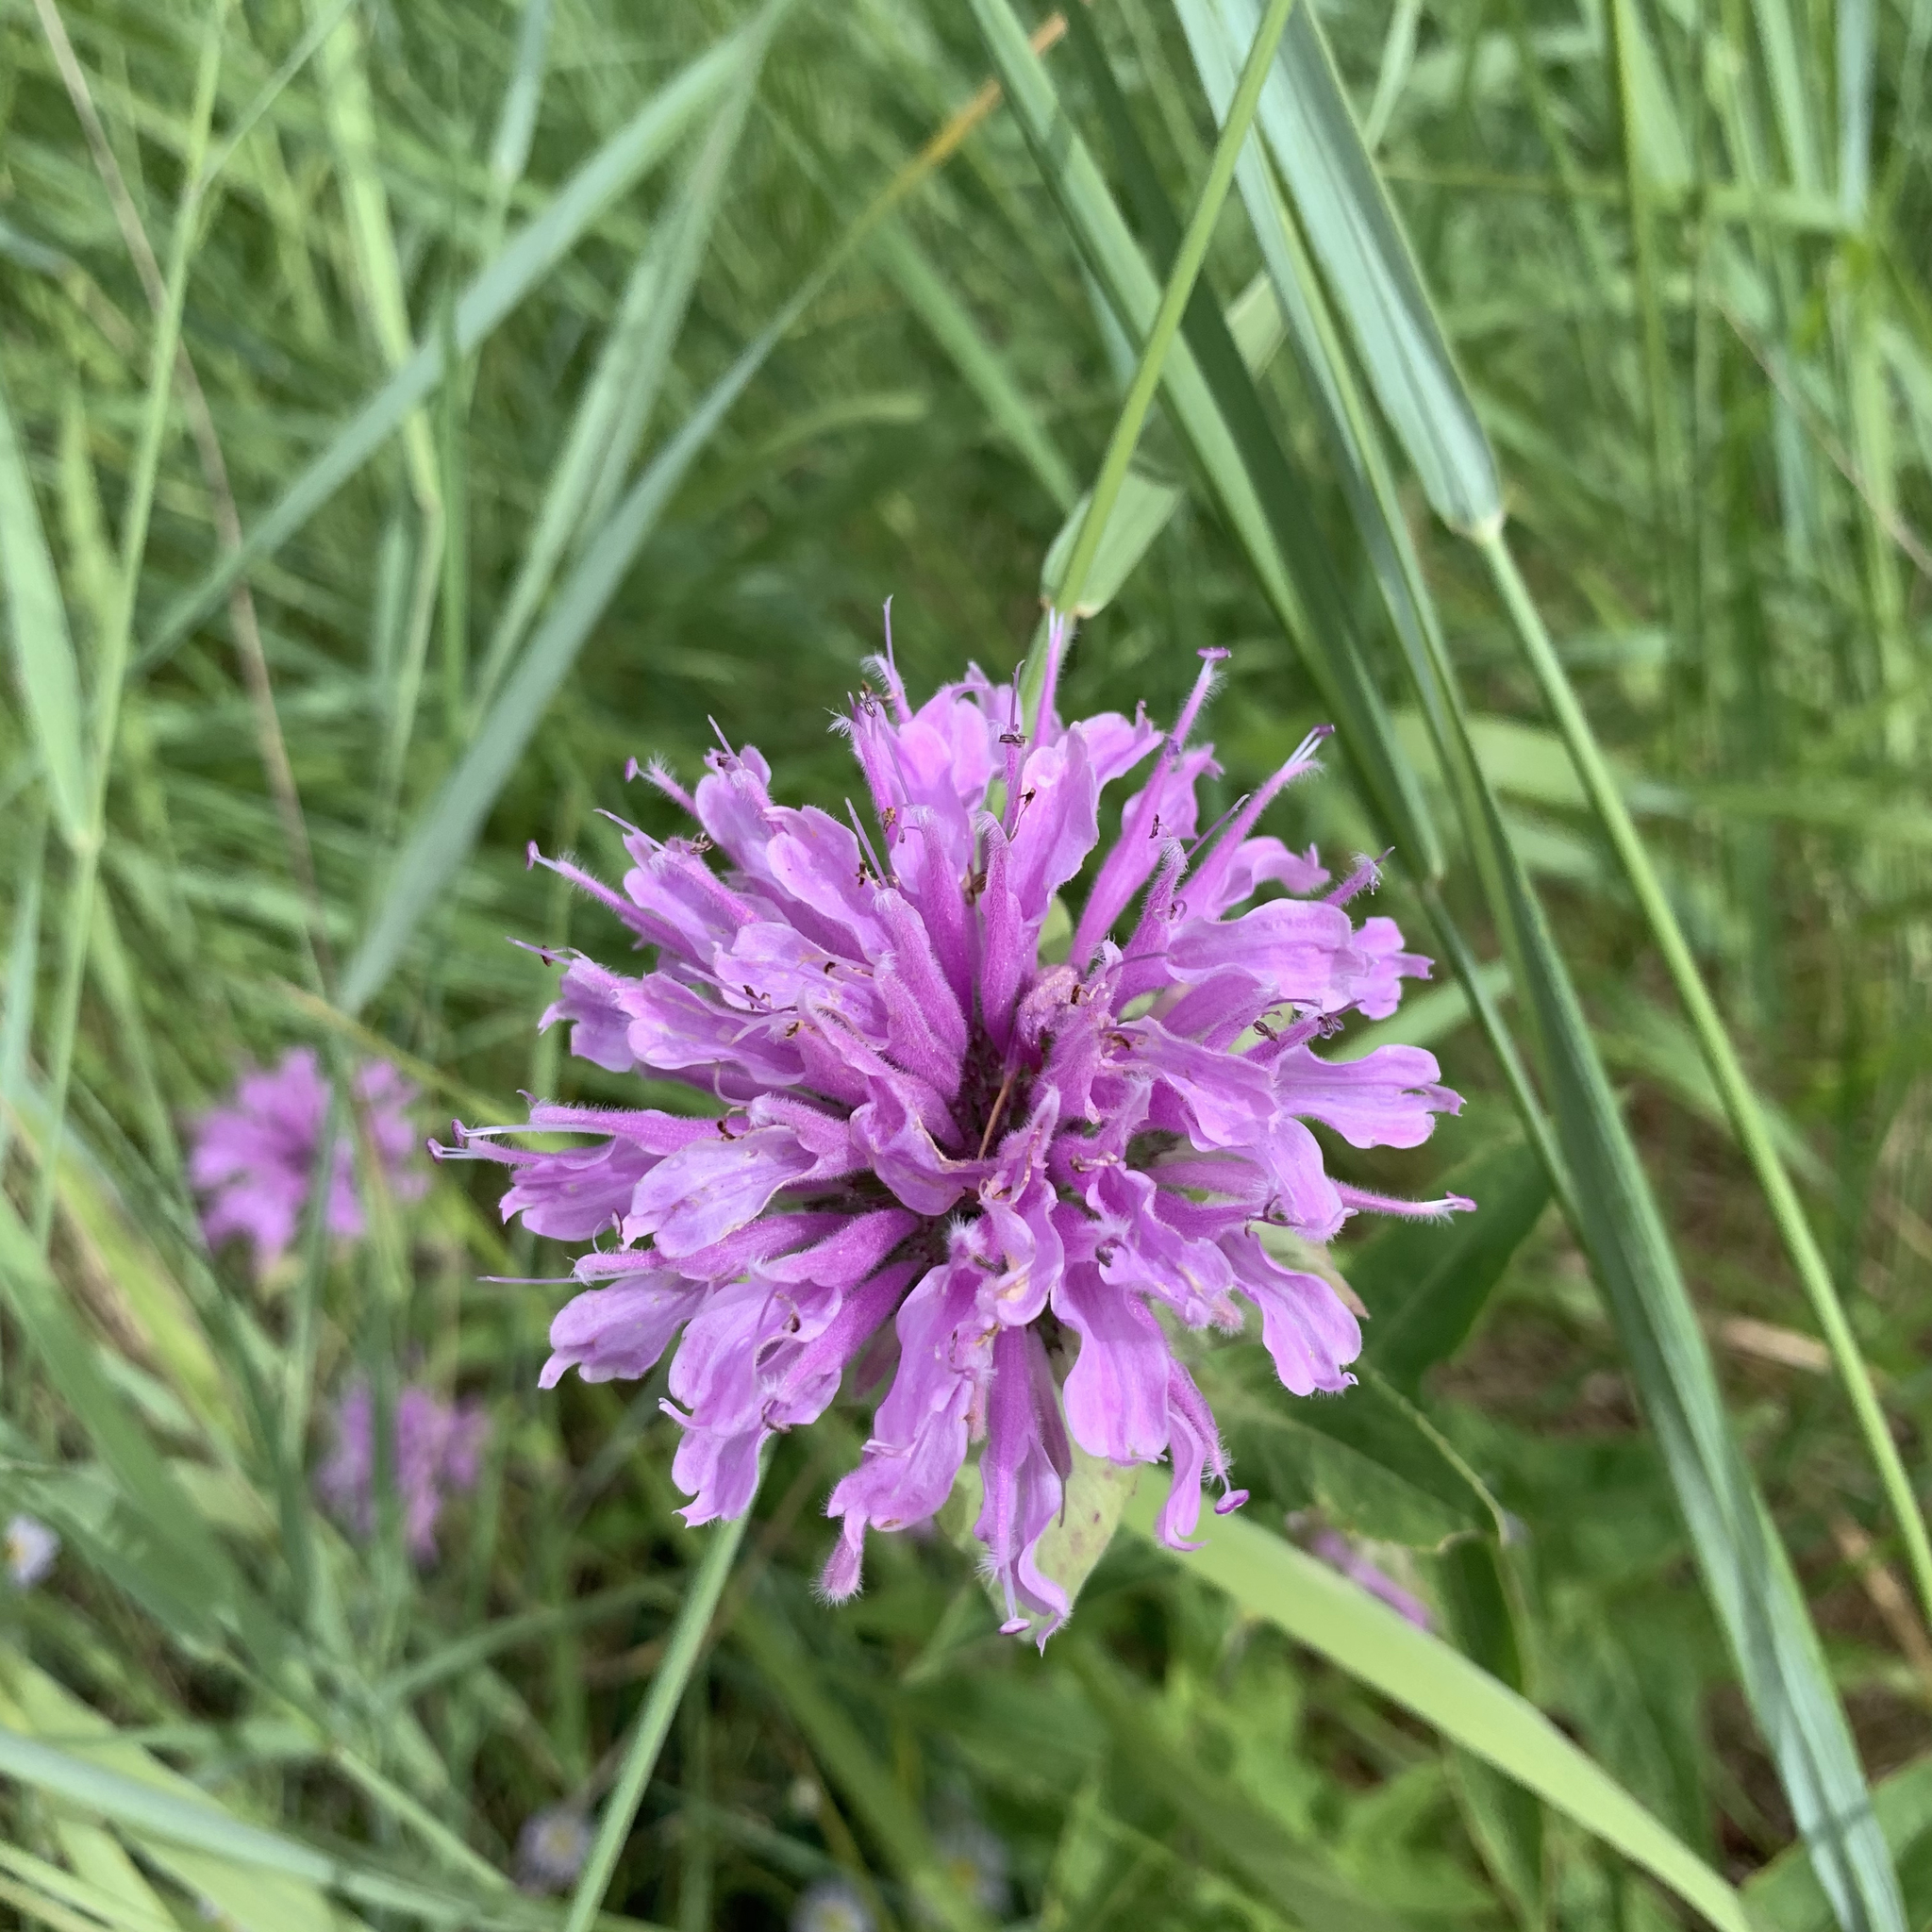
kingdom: Plantae
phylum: Tracheophyta
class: Magnoliopsida
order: Lamiales
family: Lamiaceae
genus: Monarda
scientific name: Monarda fistulosa
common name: Purple beebalm
